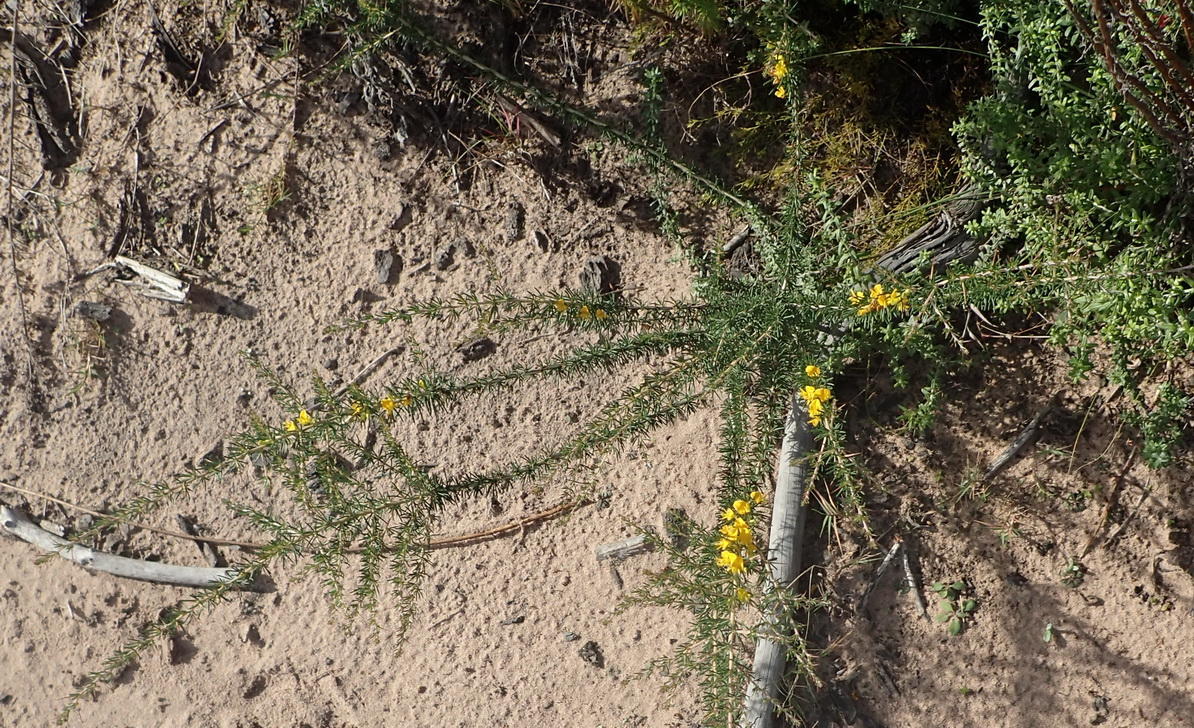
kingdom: Plantae
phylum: Tracheophyta
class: Magnoliopsida
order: Fabales
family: Fabaceae
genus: Aspalathus
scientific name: Aspalathus spinosa
